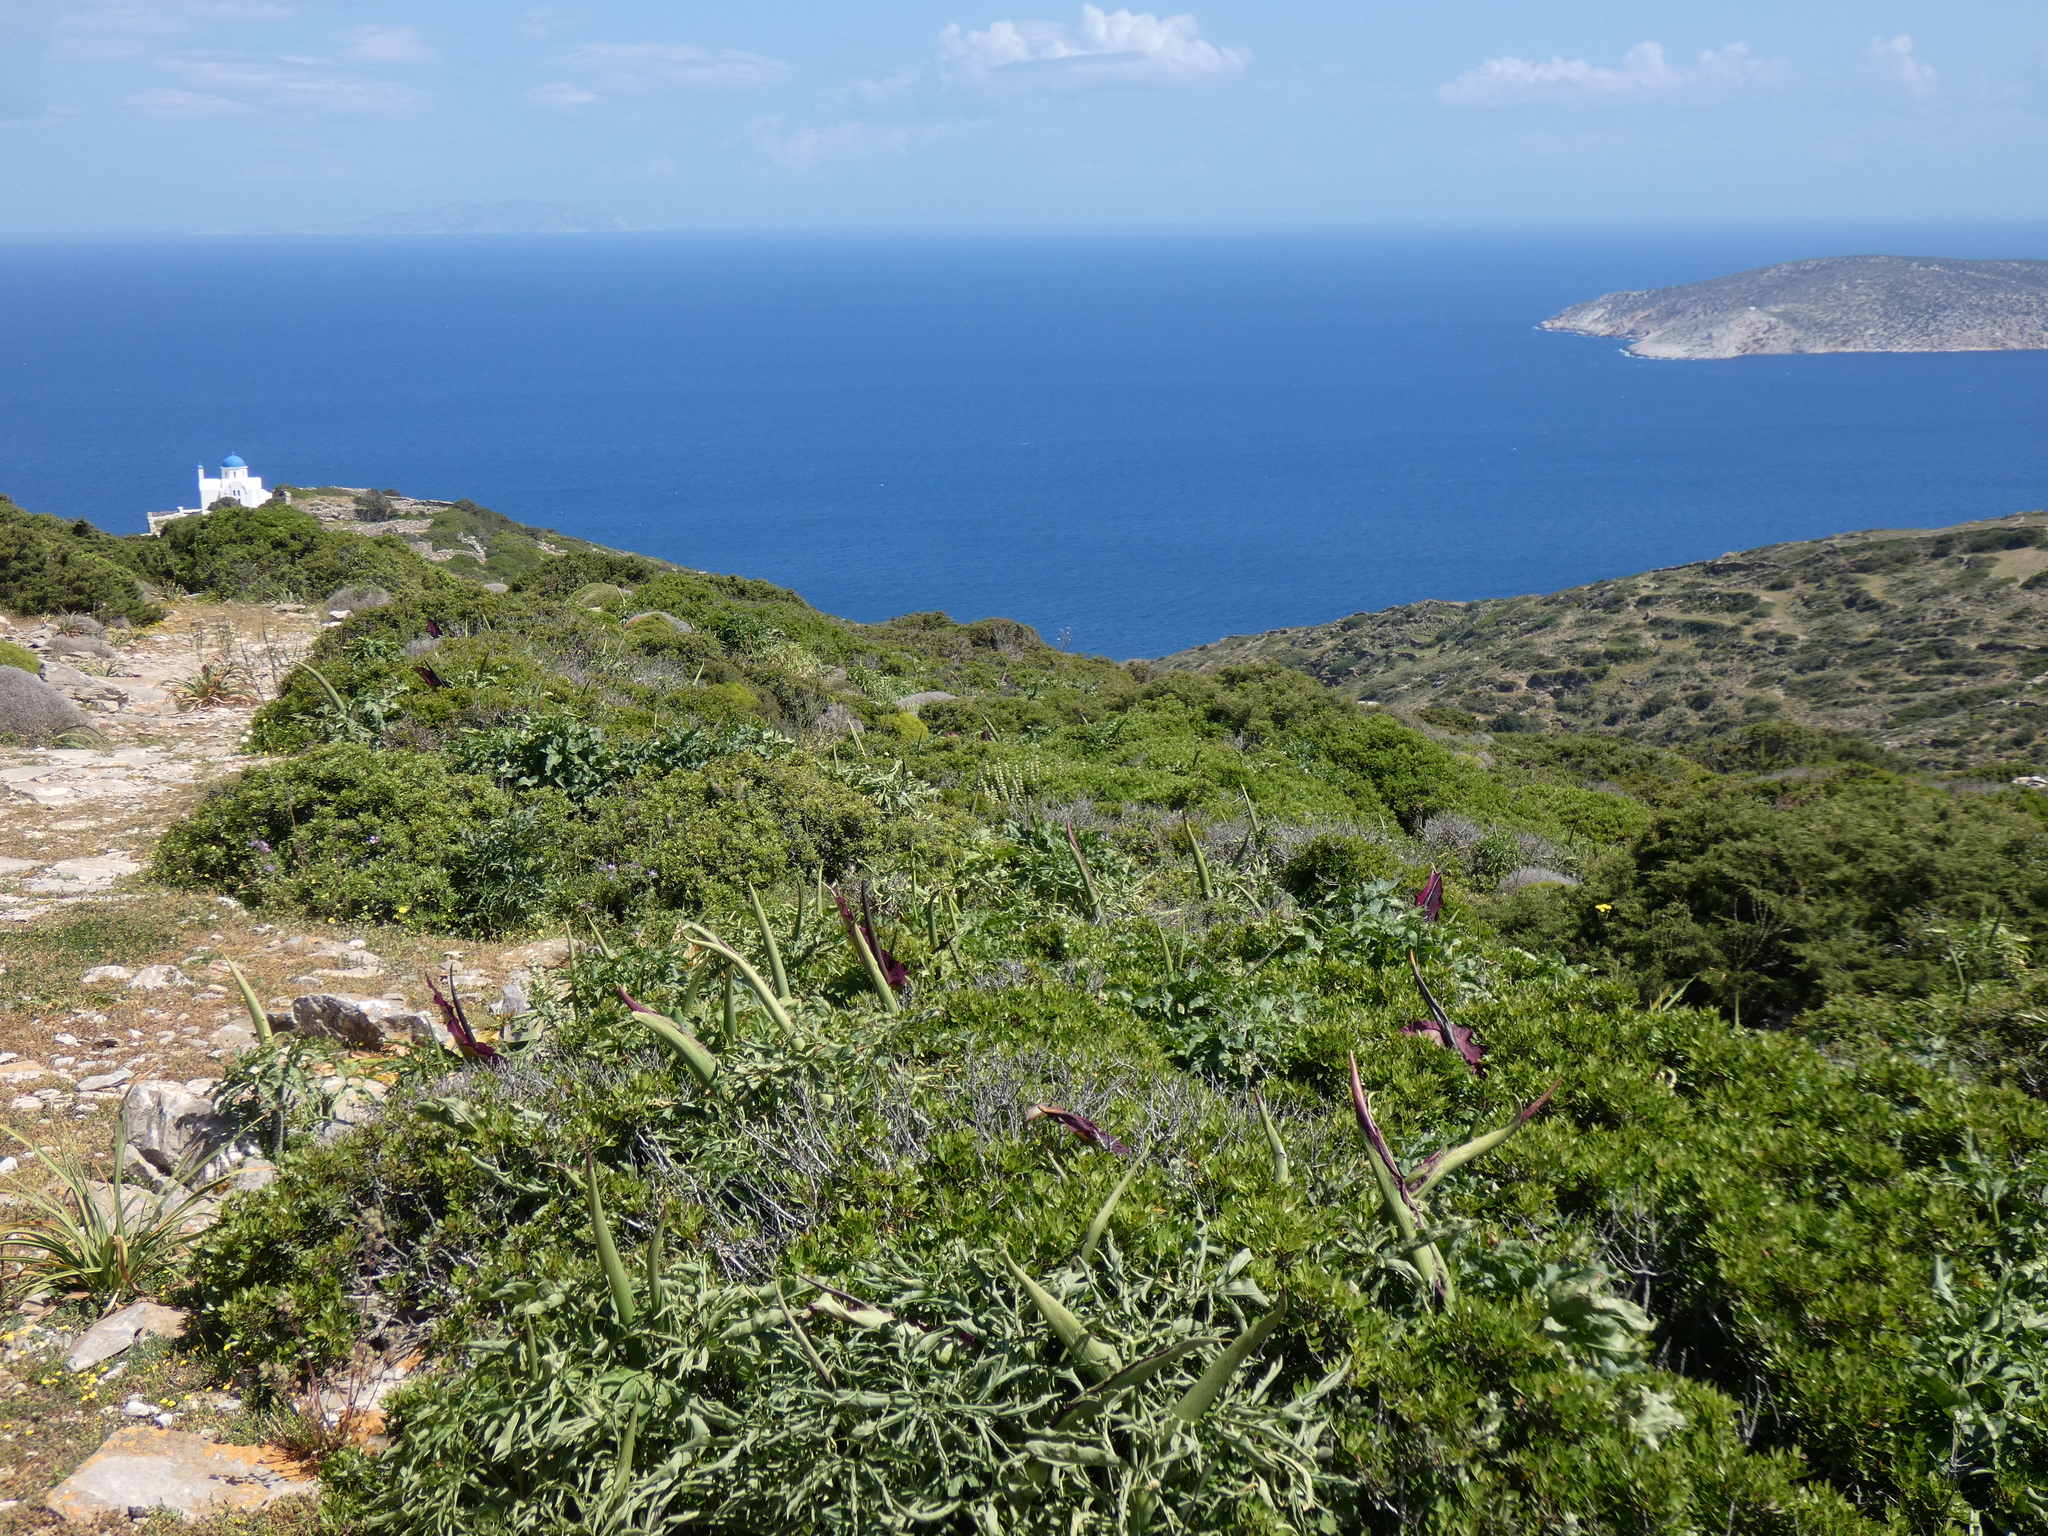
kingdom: Plantae
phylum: Tracheophyta
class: Liliopsida
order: Alismatales
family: Araceae
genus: Dracunculus
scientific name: Dracunculus vulgaris
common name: Dragon arum
